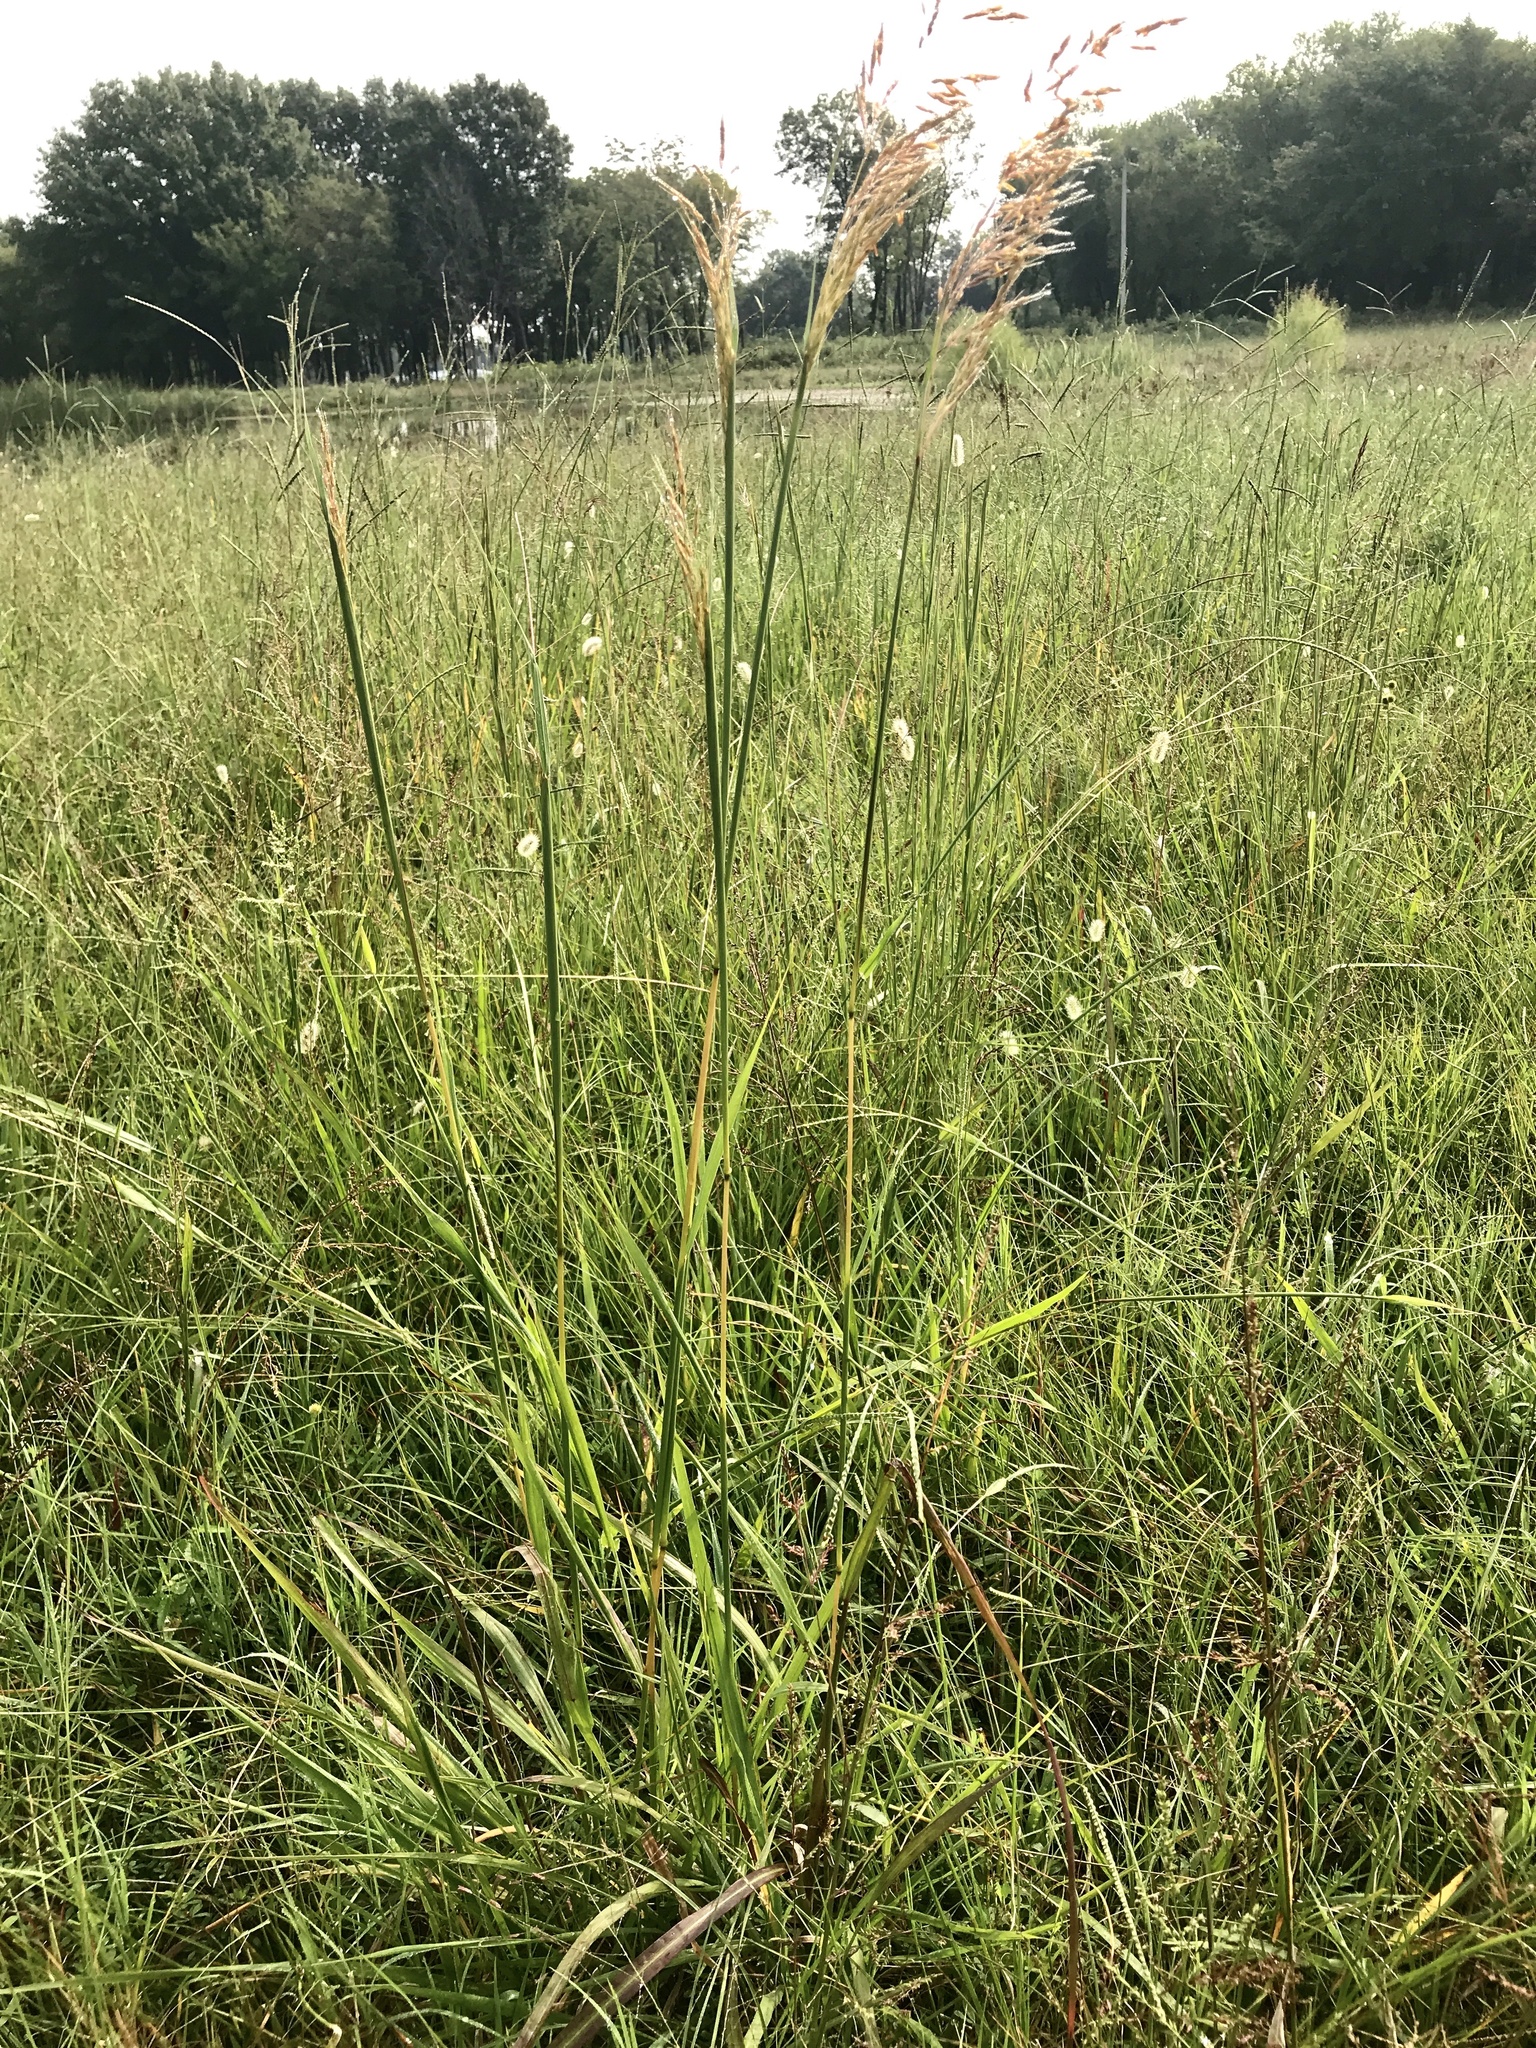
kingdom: Plantae
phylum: Tracheophyta
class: Liliopsida
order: Poales
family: Poaceae
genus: Sorghastrum
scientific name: Sorghastrum nutans
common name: Indian grass
